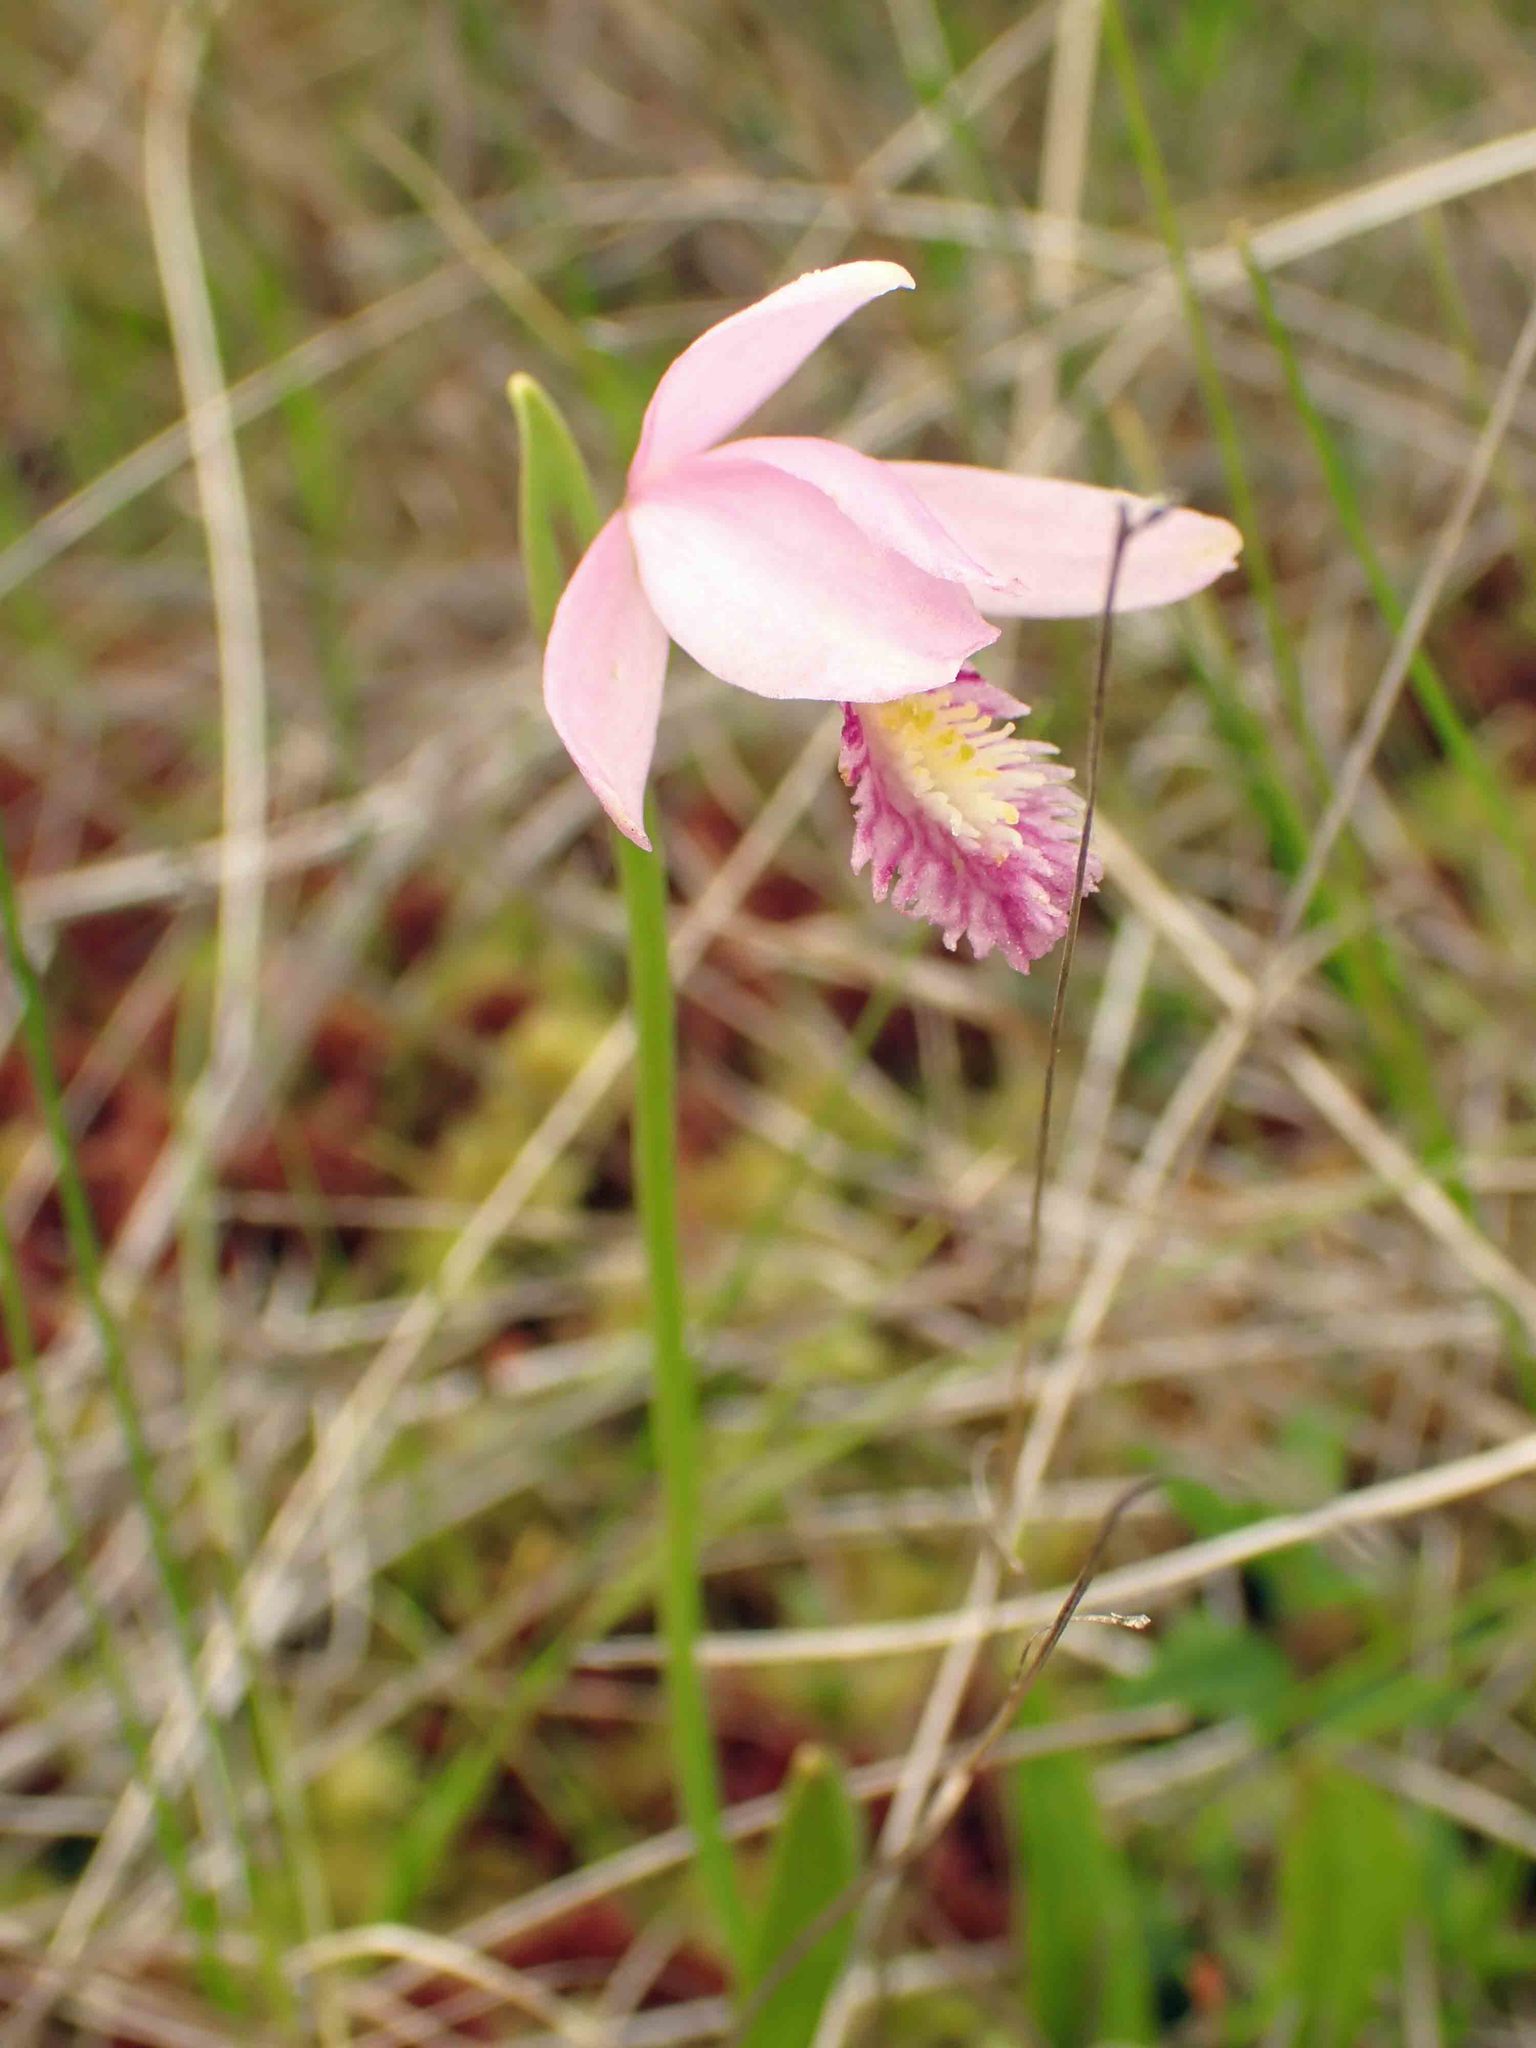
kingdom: Plantae
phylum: Tracheophyta
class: Liliopsida
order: Asparagales
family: Orchidaceae
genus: Pogonia
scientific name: Pogonia ophioglossoides
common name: Rose pogonia
